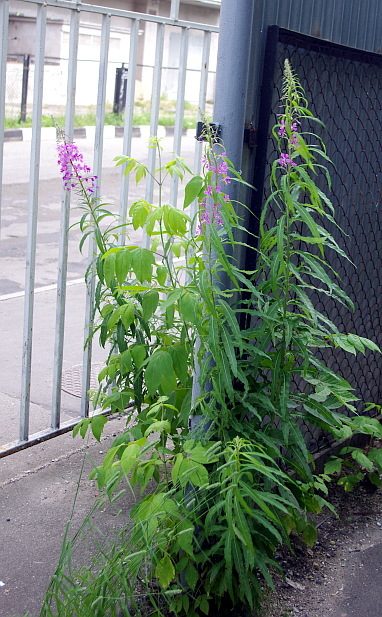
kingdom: Plantae
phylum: Tracheophyta
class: Magnoliopsida
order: Myrtales
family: Onagraceae
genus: Chamaenerion
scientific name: Chamaenerion angustifolium
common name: Fireweed
